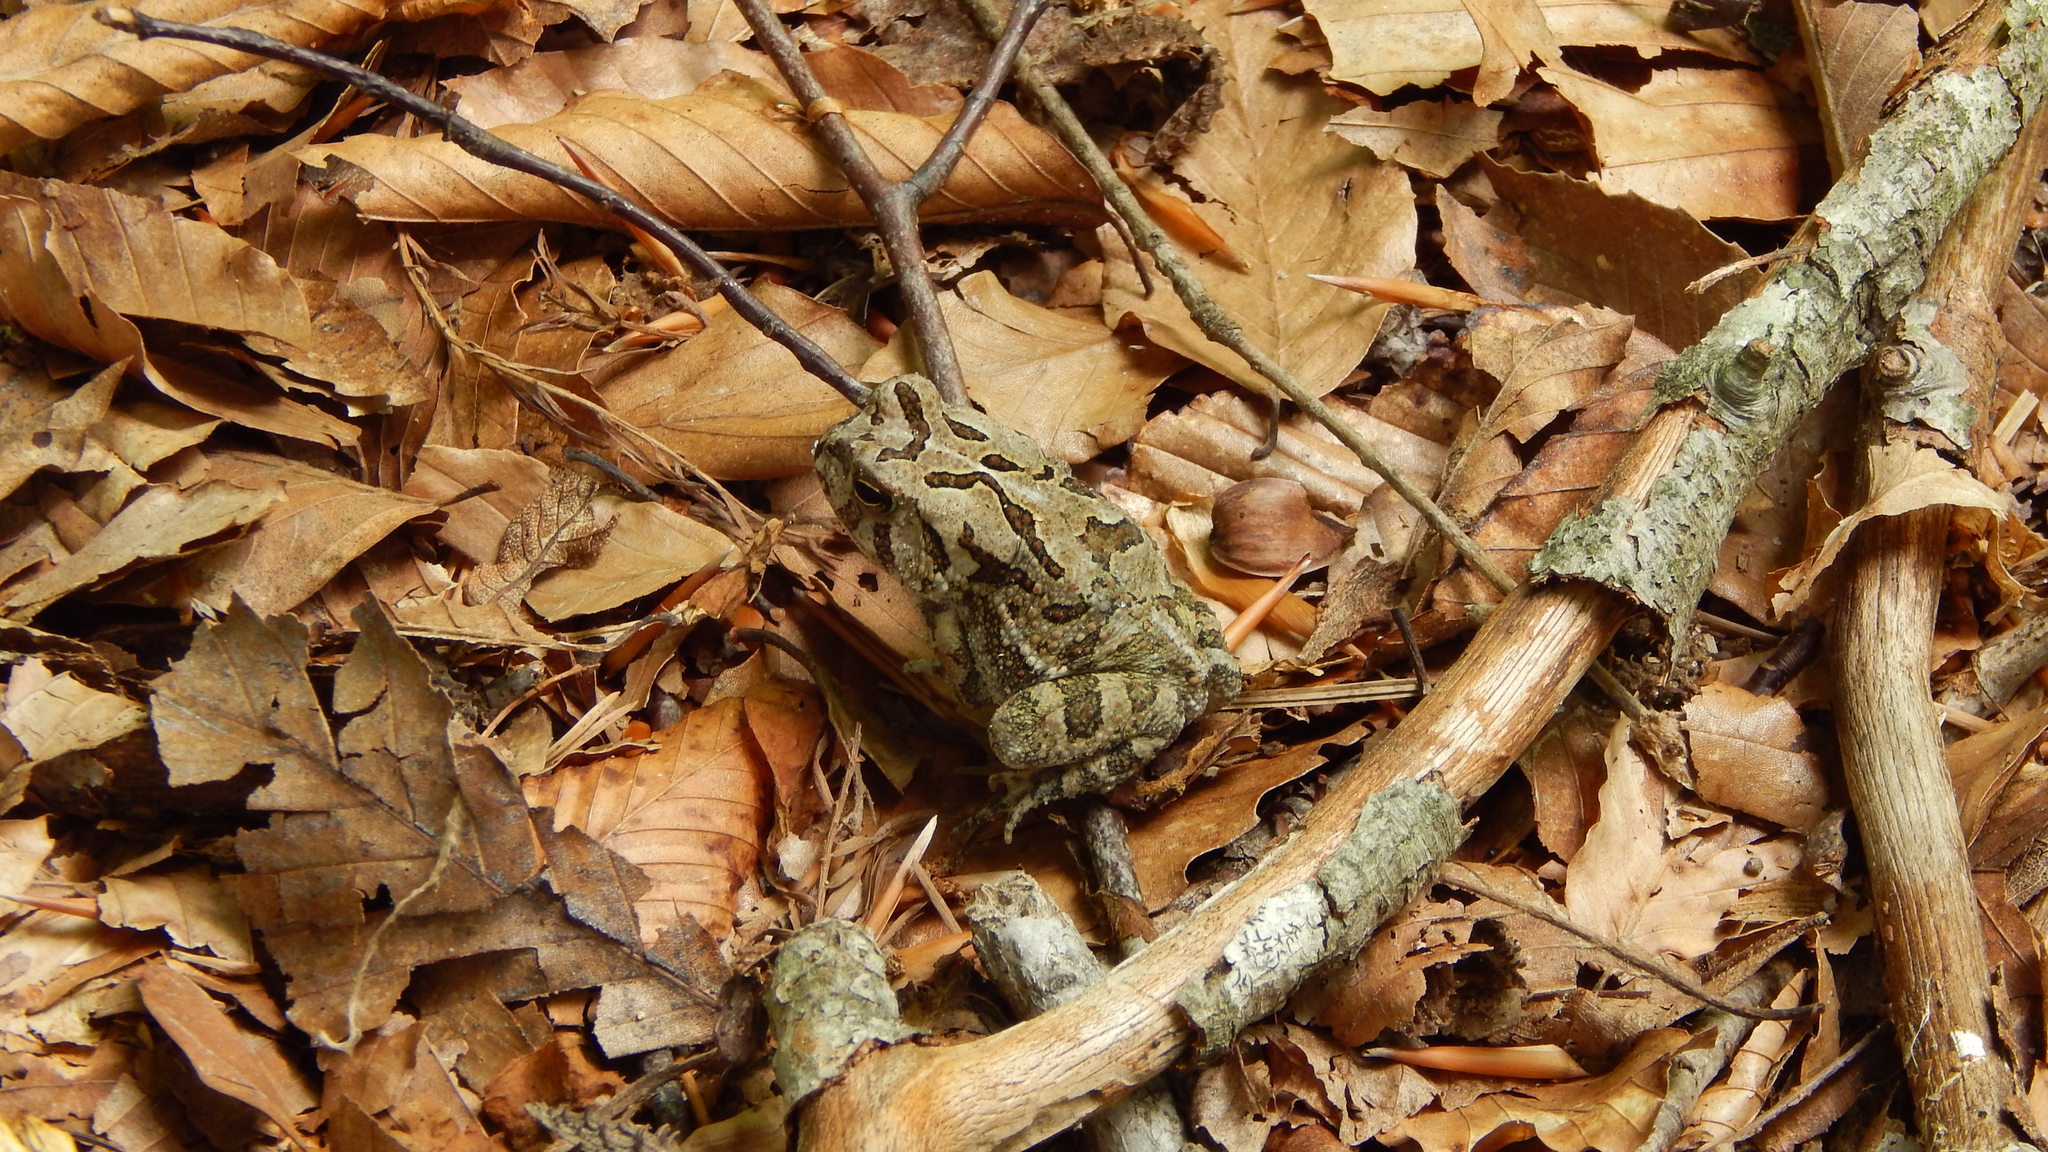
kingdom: Animalia
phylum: Chordata
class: Amphibia
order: Anura
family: Bufonidae
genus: Anaxyrus
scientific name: Anaxyrus fowleri
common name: Fowler's toad
